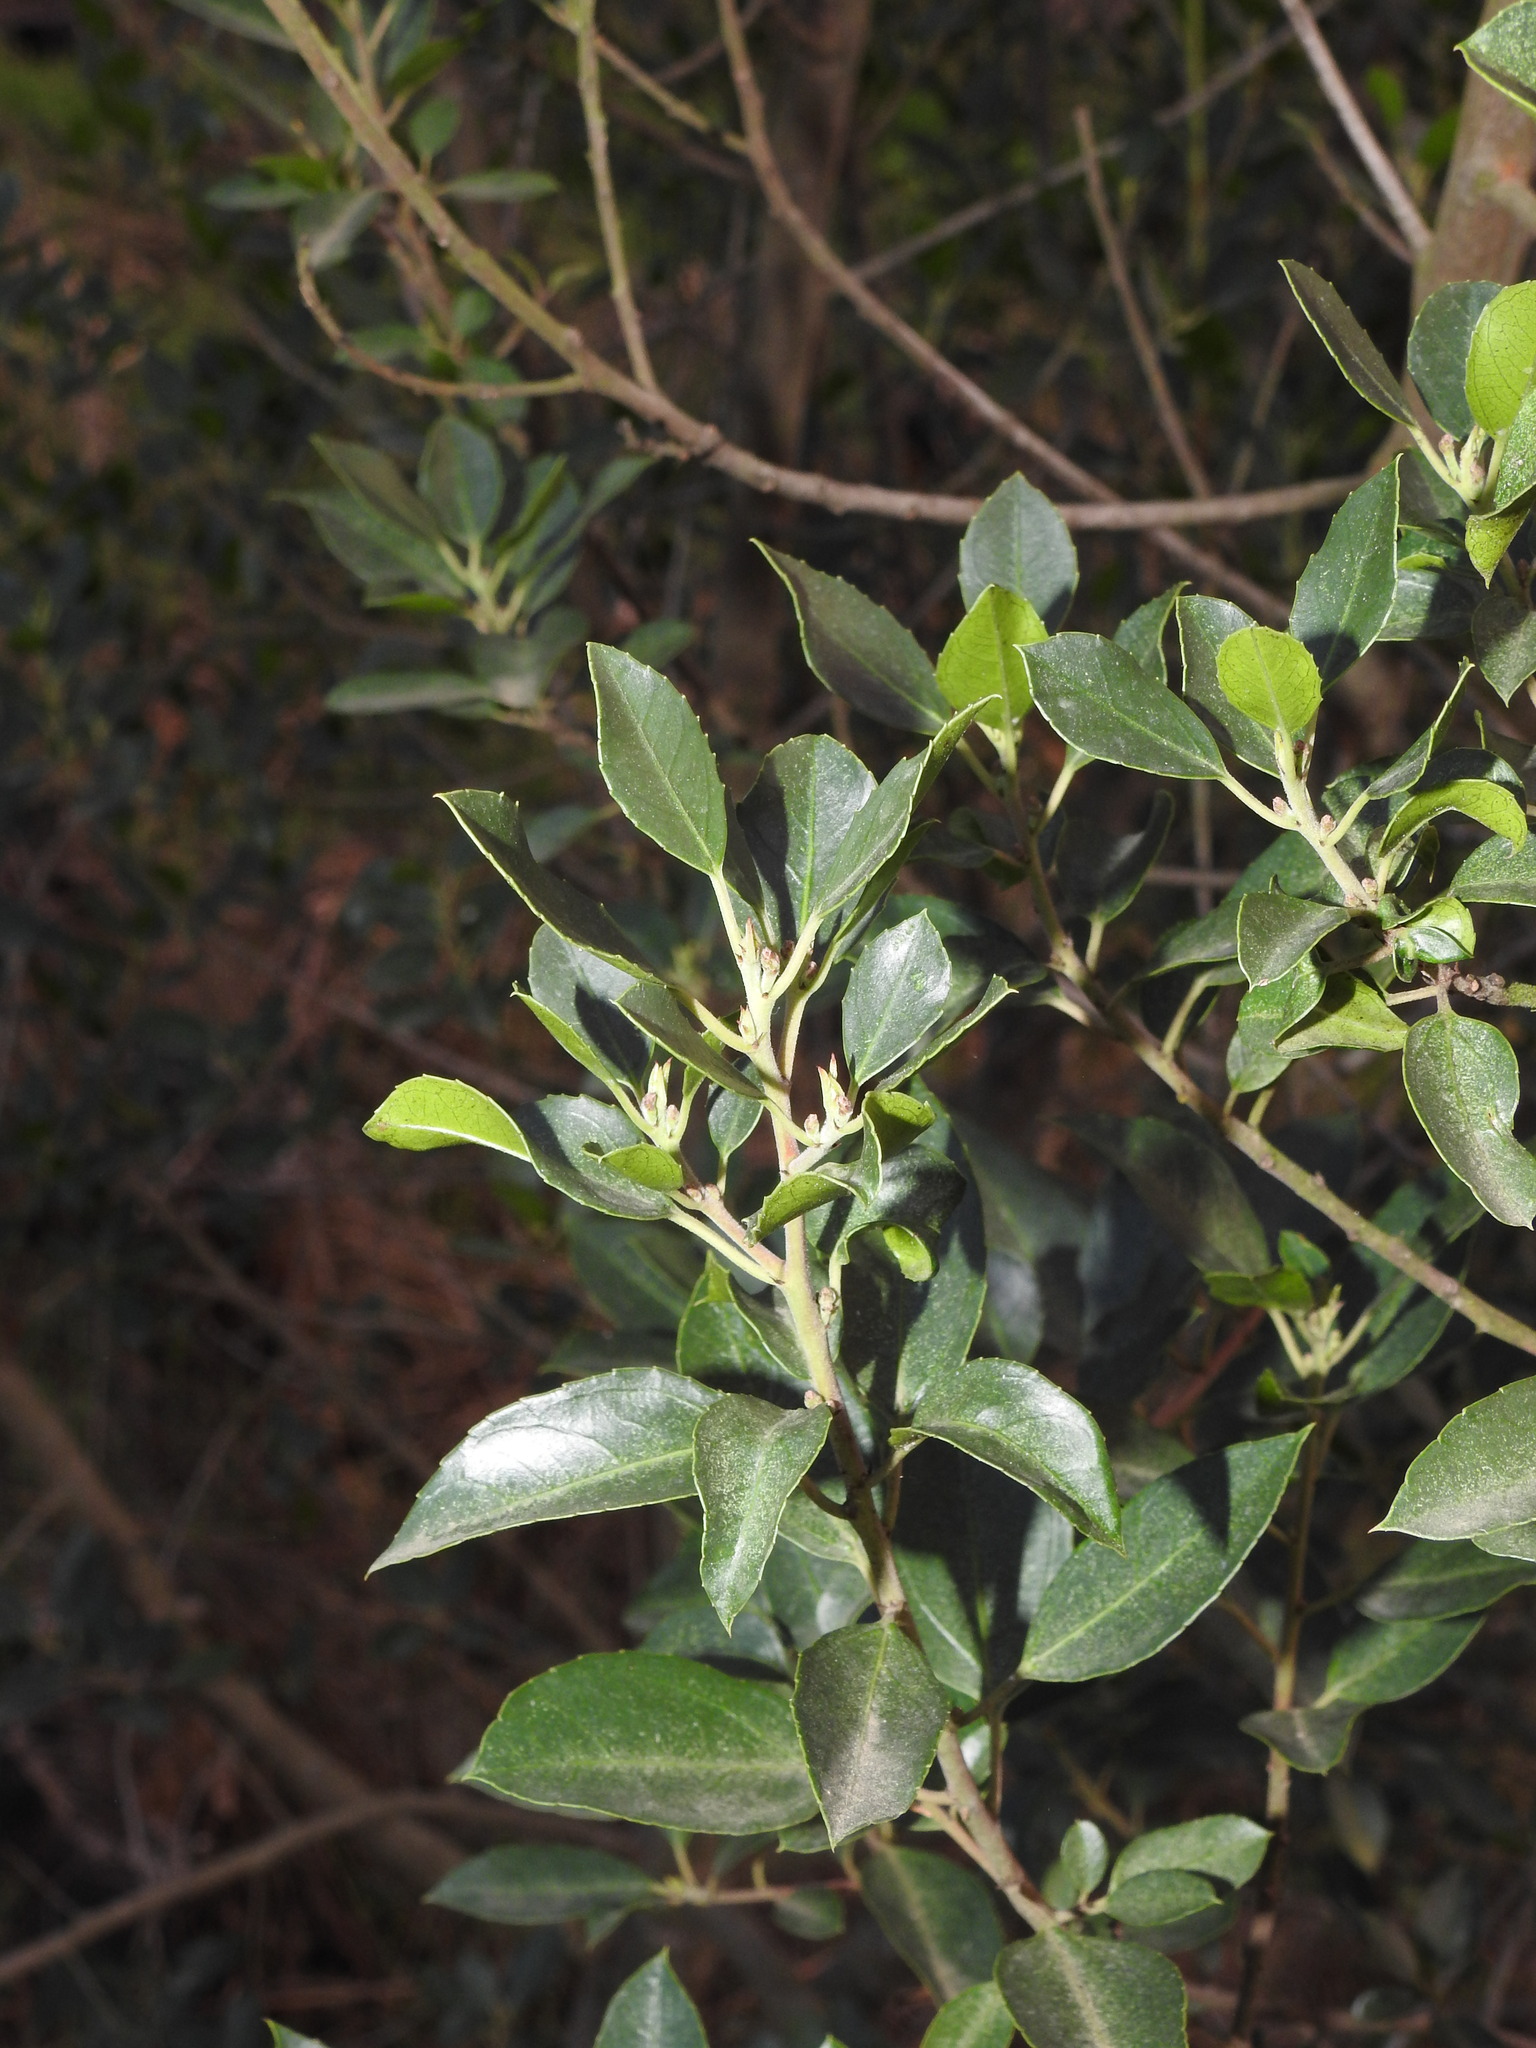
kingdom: Plantae
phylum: Tracheophyta
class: Magnoliopsida
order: Rosales
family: Rhamnaceae
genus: Rhamnus
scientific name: Rhamnus alaternus
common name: Mediterranean buckthorn
